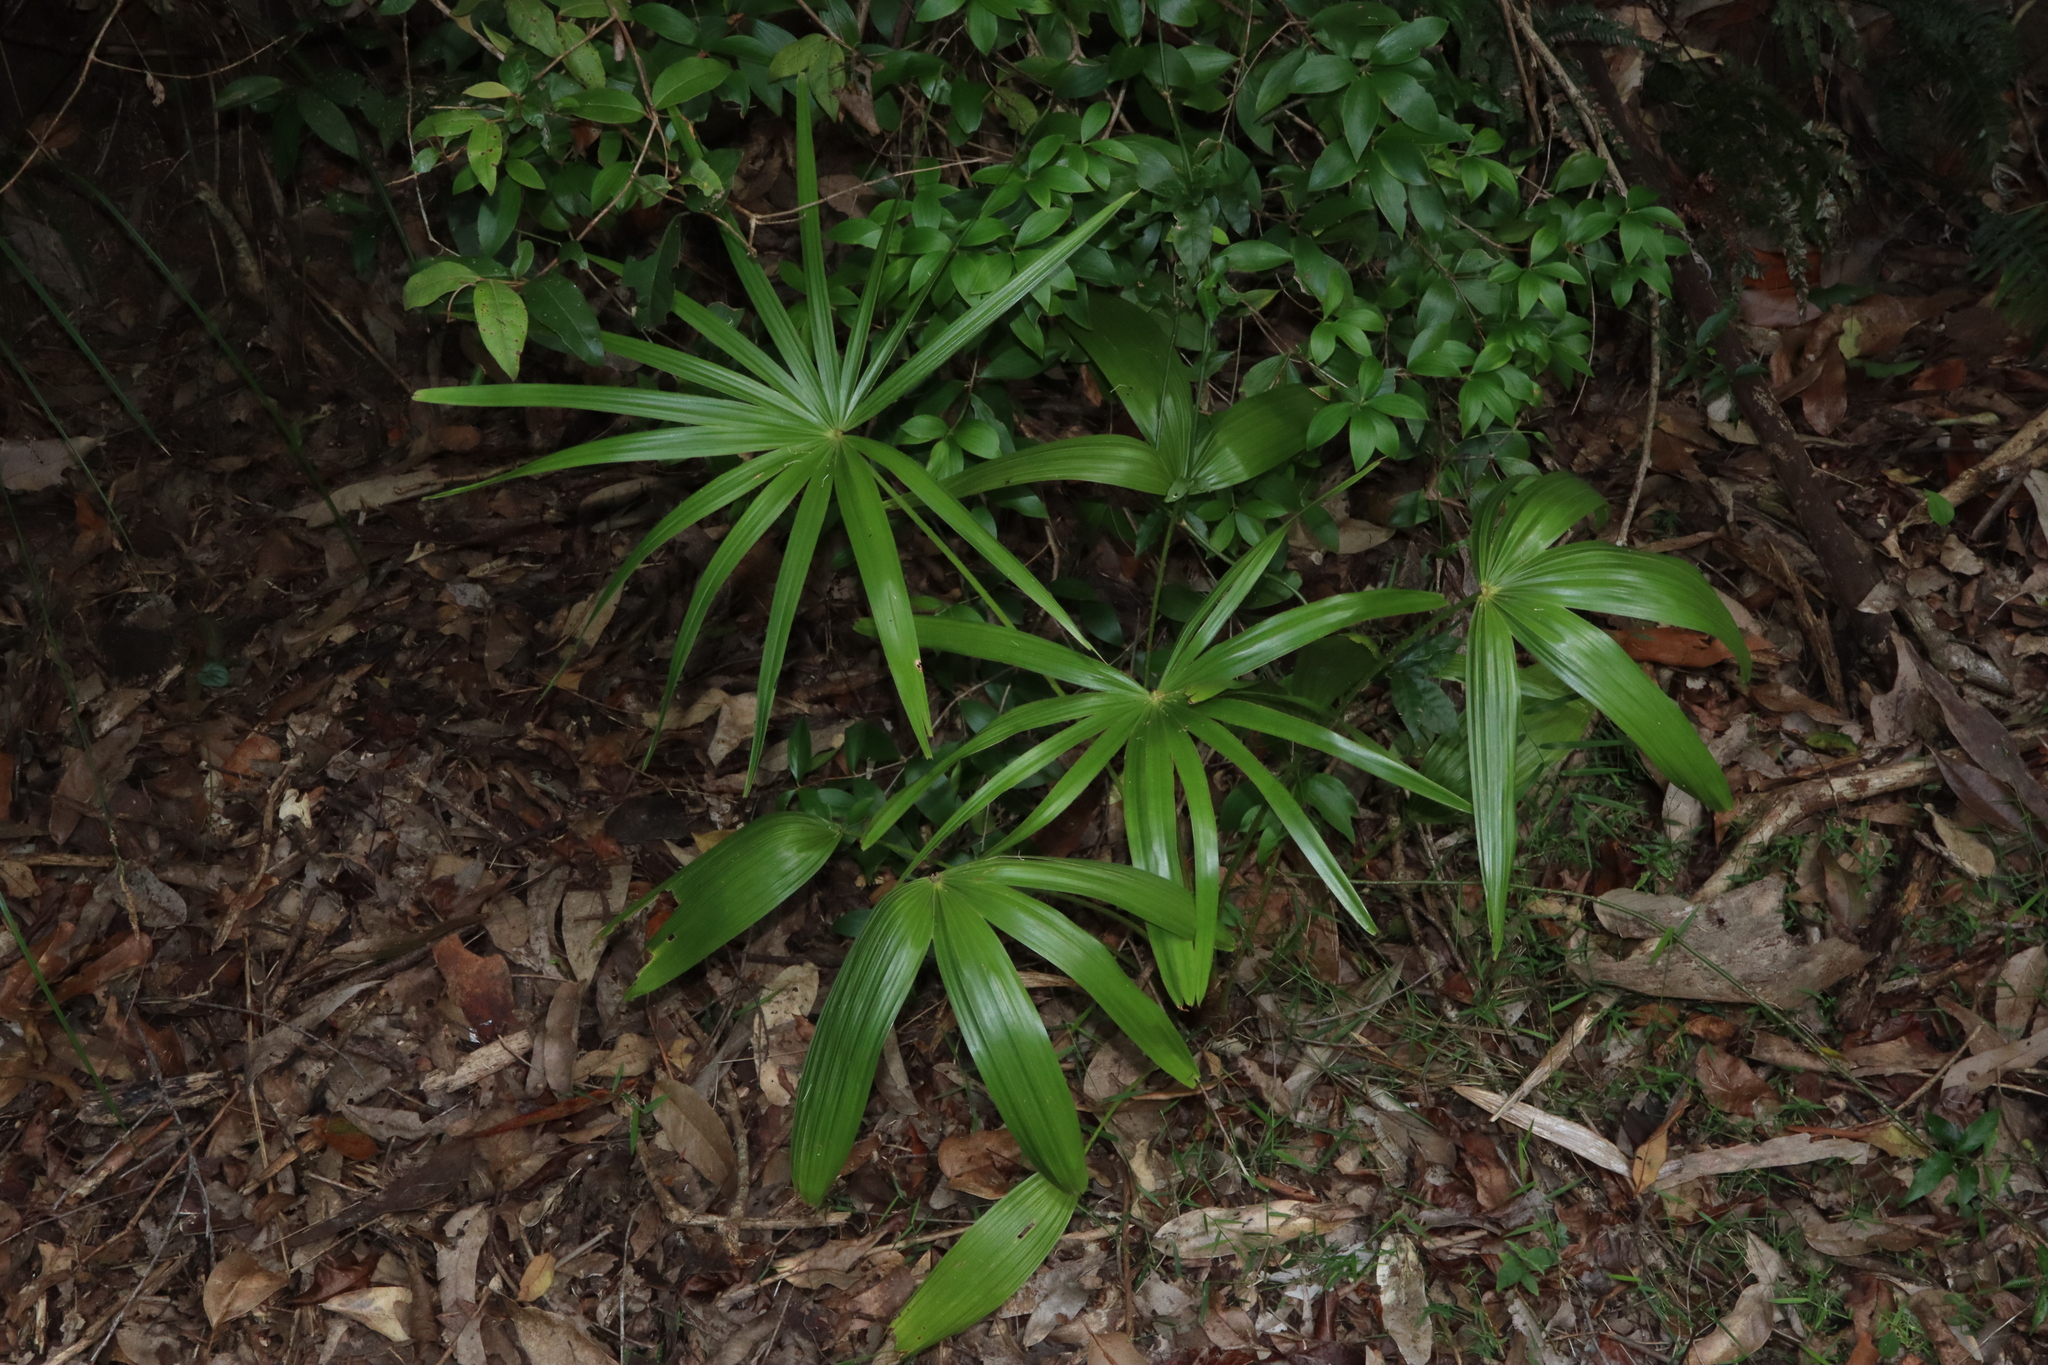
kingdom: Plantae
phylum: Tracheophyta
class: Liliopsida
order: Arecales
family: Arecaceae
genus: Livistona
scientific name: Livistona australis
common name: Cabbage fan palm
